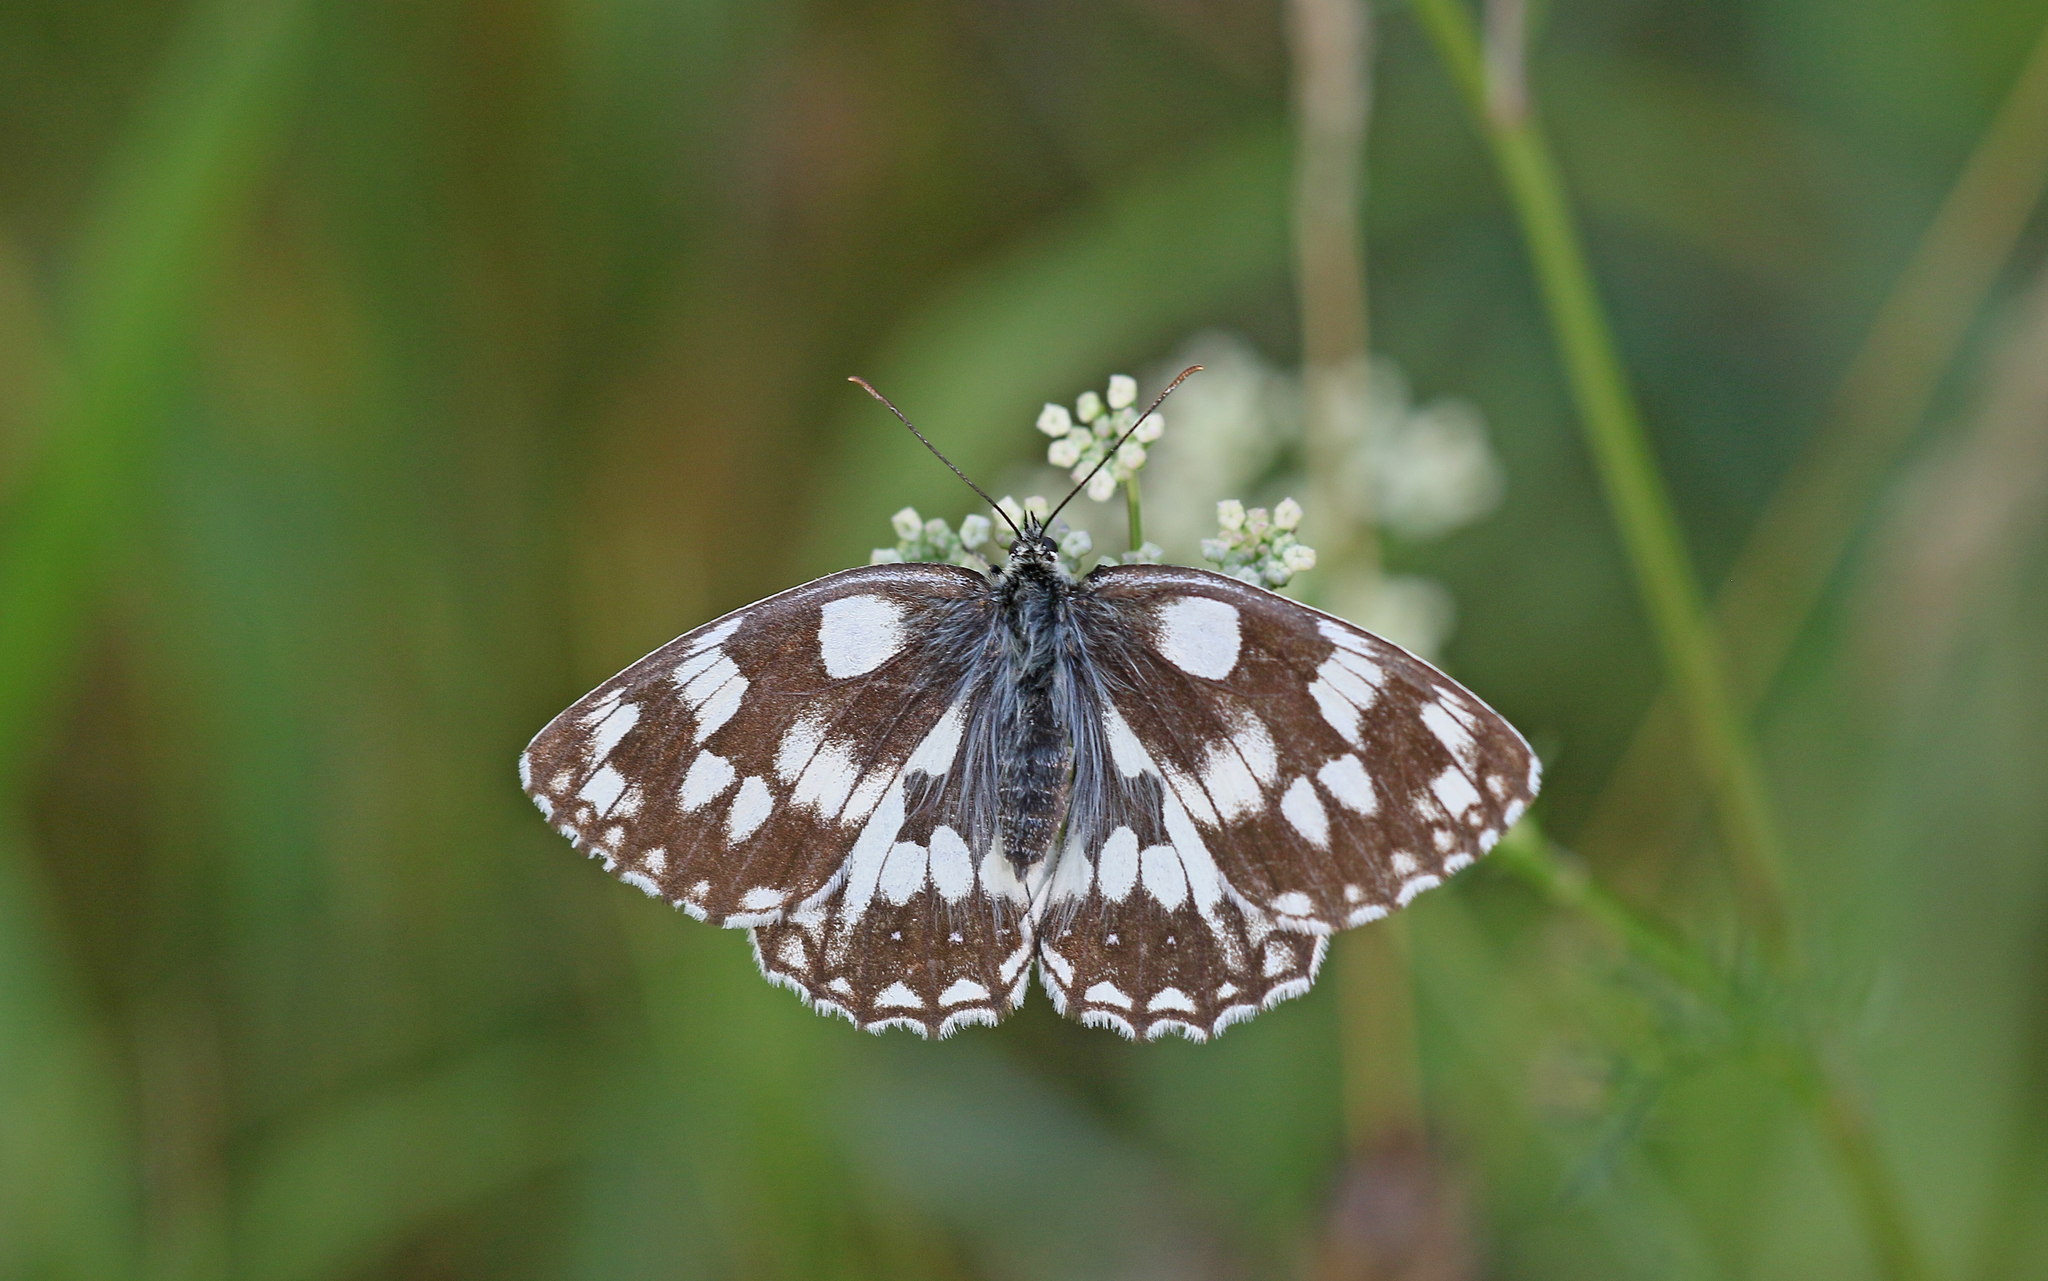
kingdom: Animalia
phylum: Arthropoda
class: Insecta
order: Lepidoptera
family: Nymphalidae
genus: Melanargia
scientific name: Melanargia galathea
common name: Marbled white
